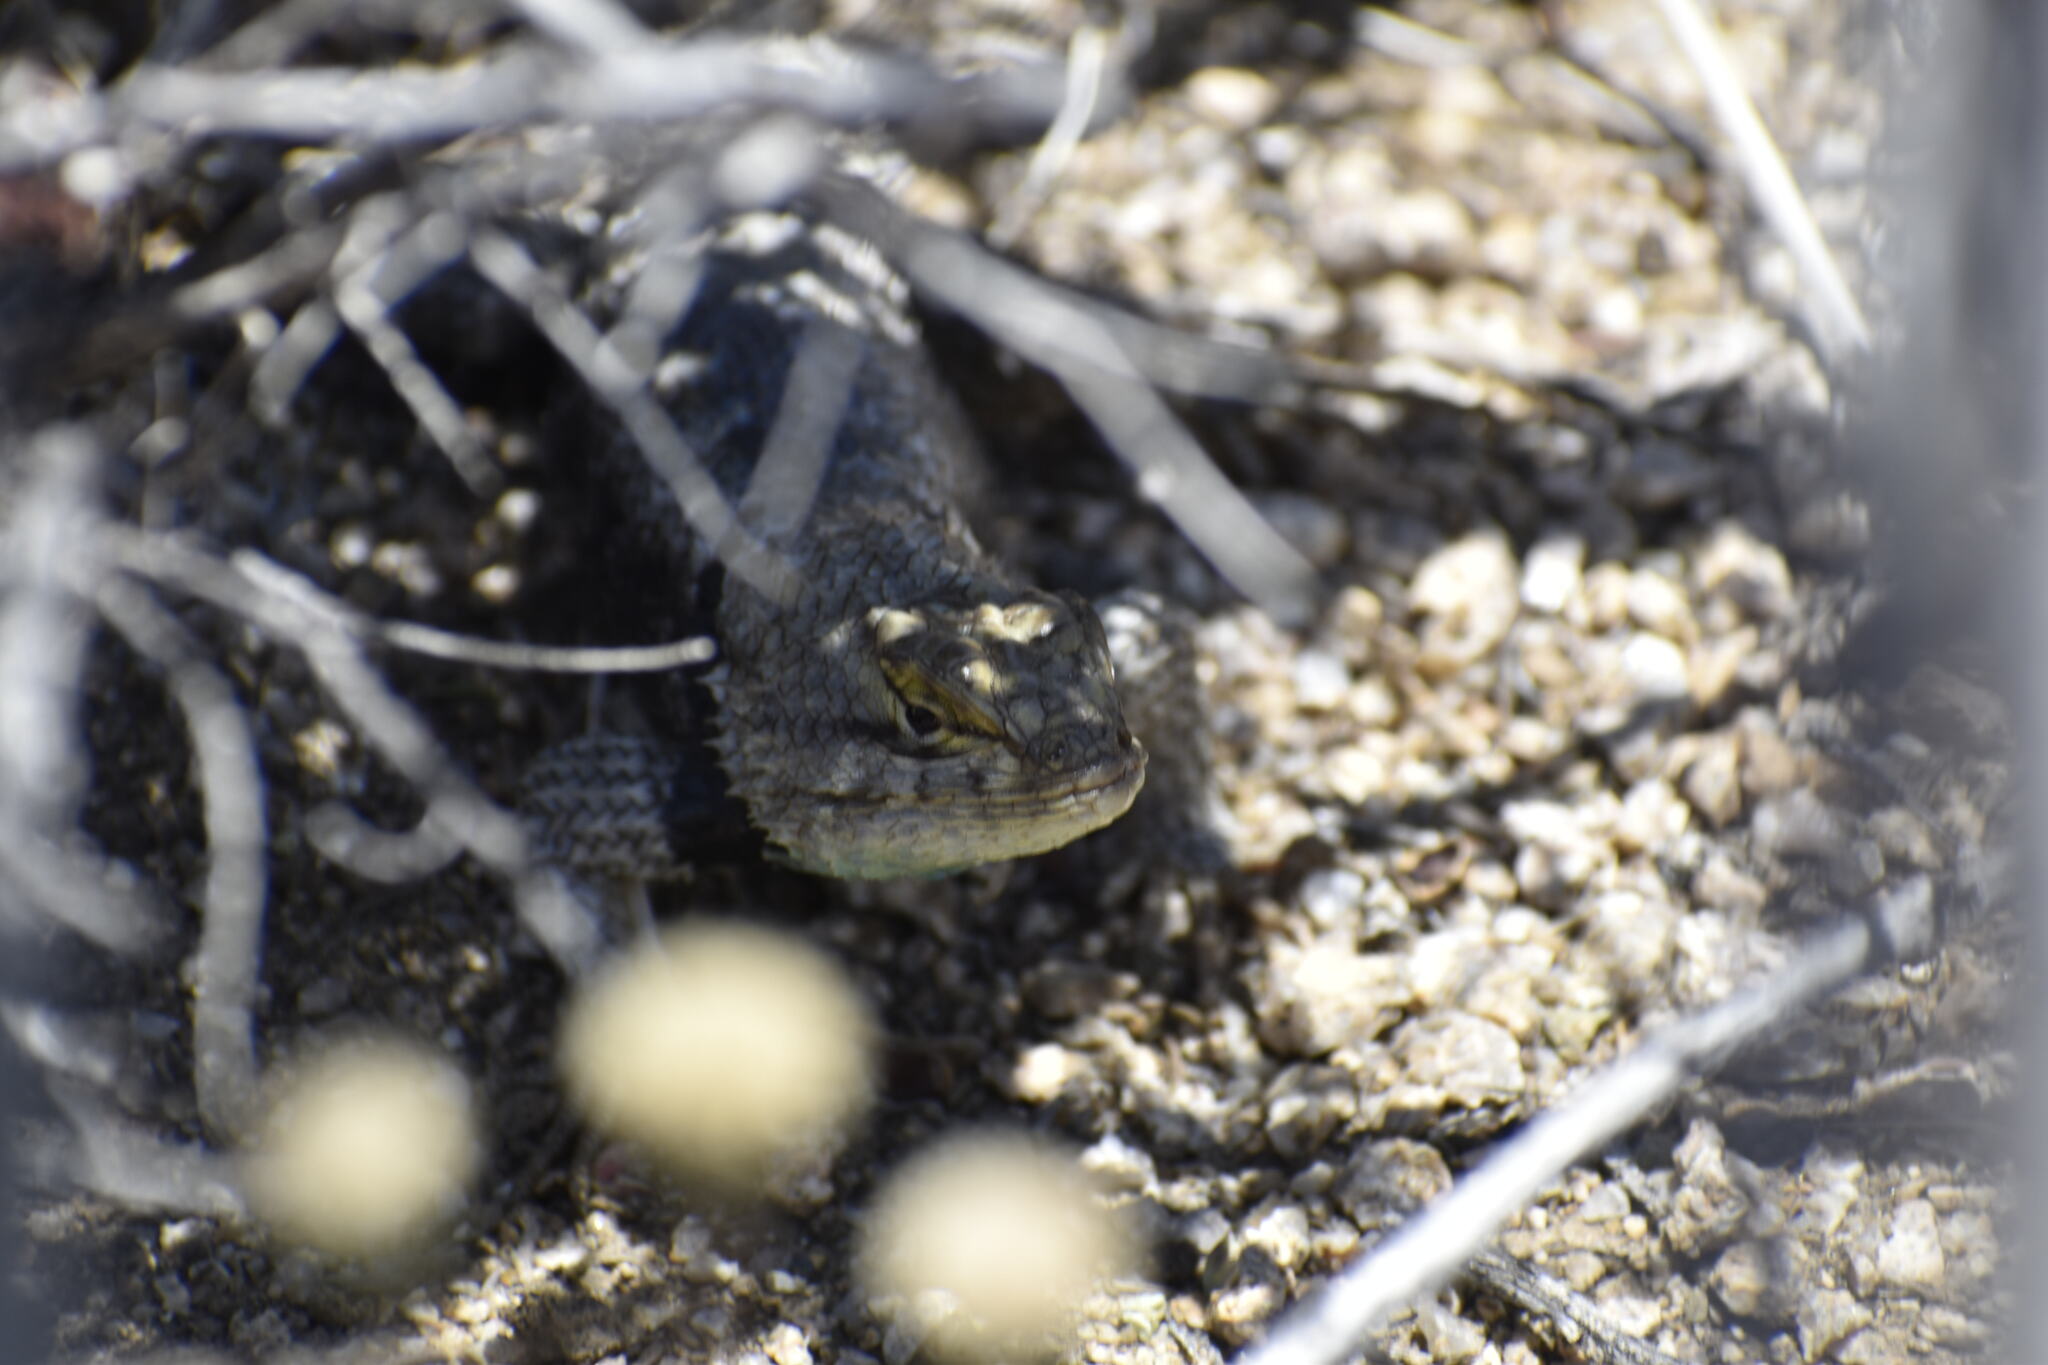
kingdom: Animalia
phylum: Chordata
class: Squamata
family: Phrynosomatidae
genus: Sceloporus
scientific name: Sceloporus magister
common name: Desert spiny lizard
